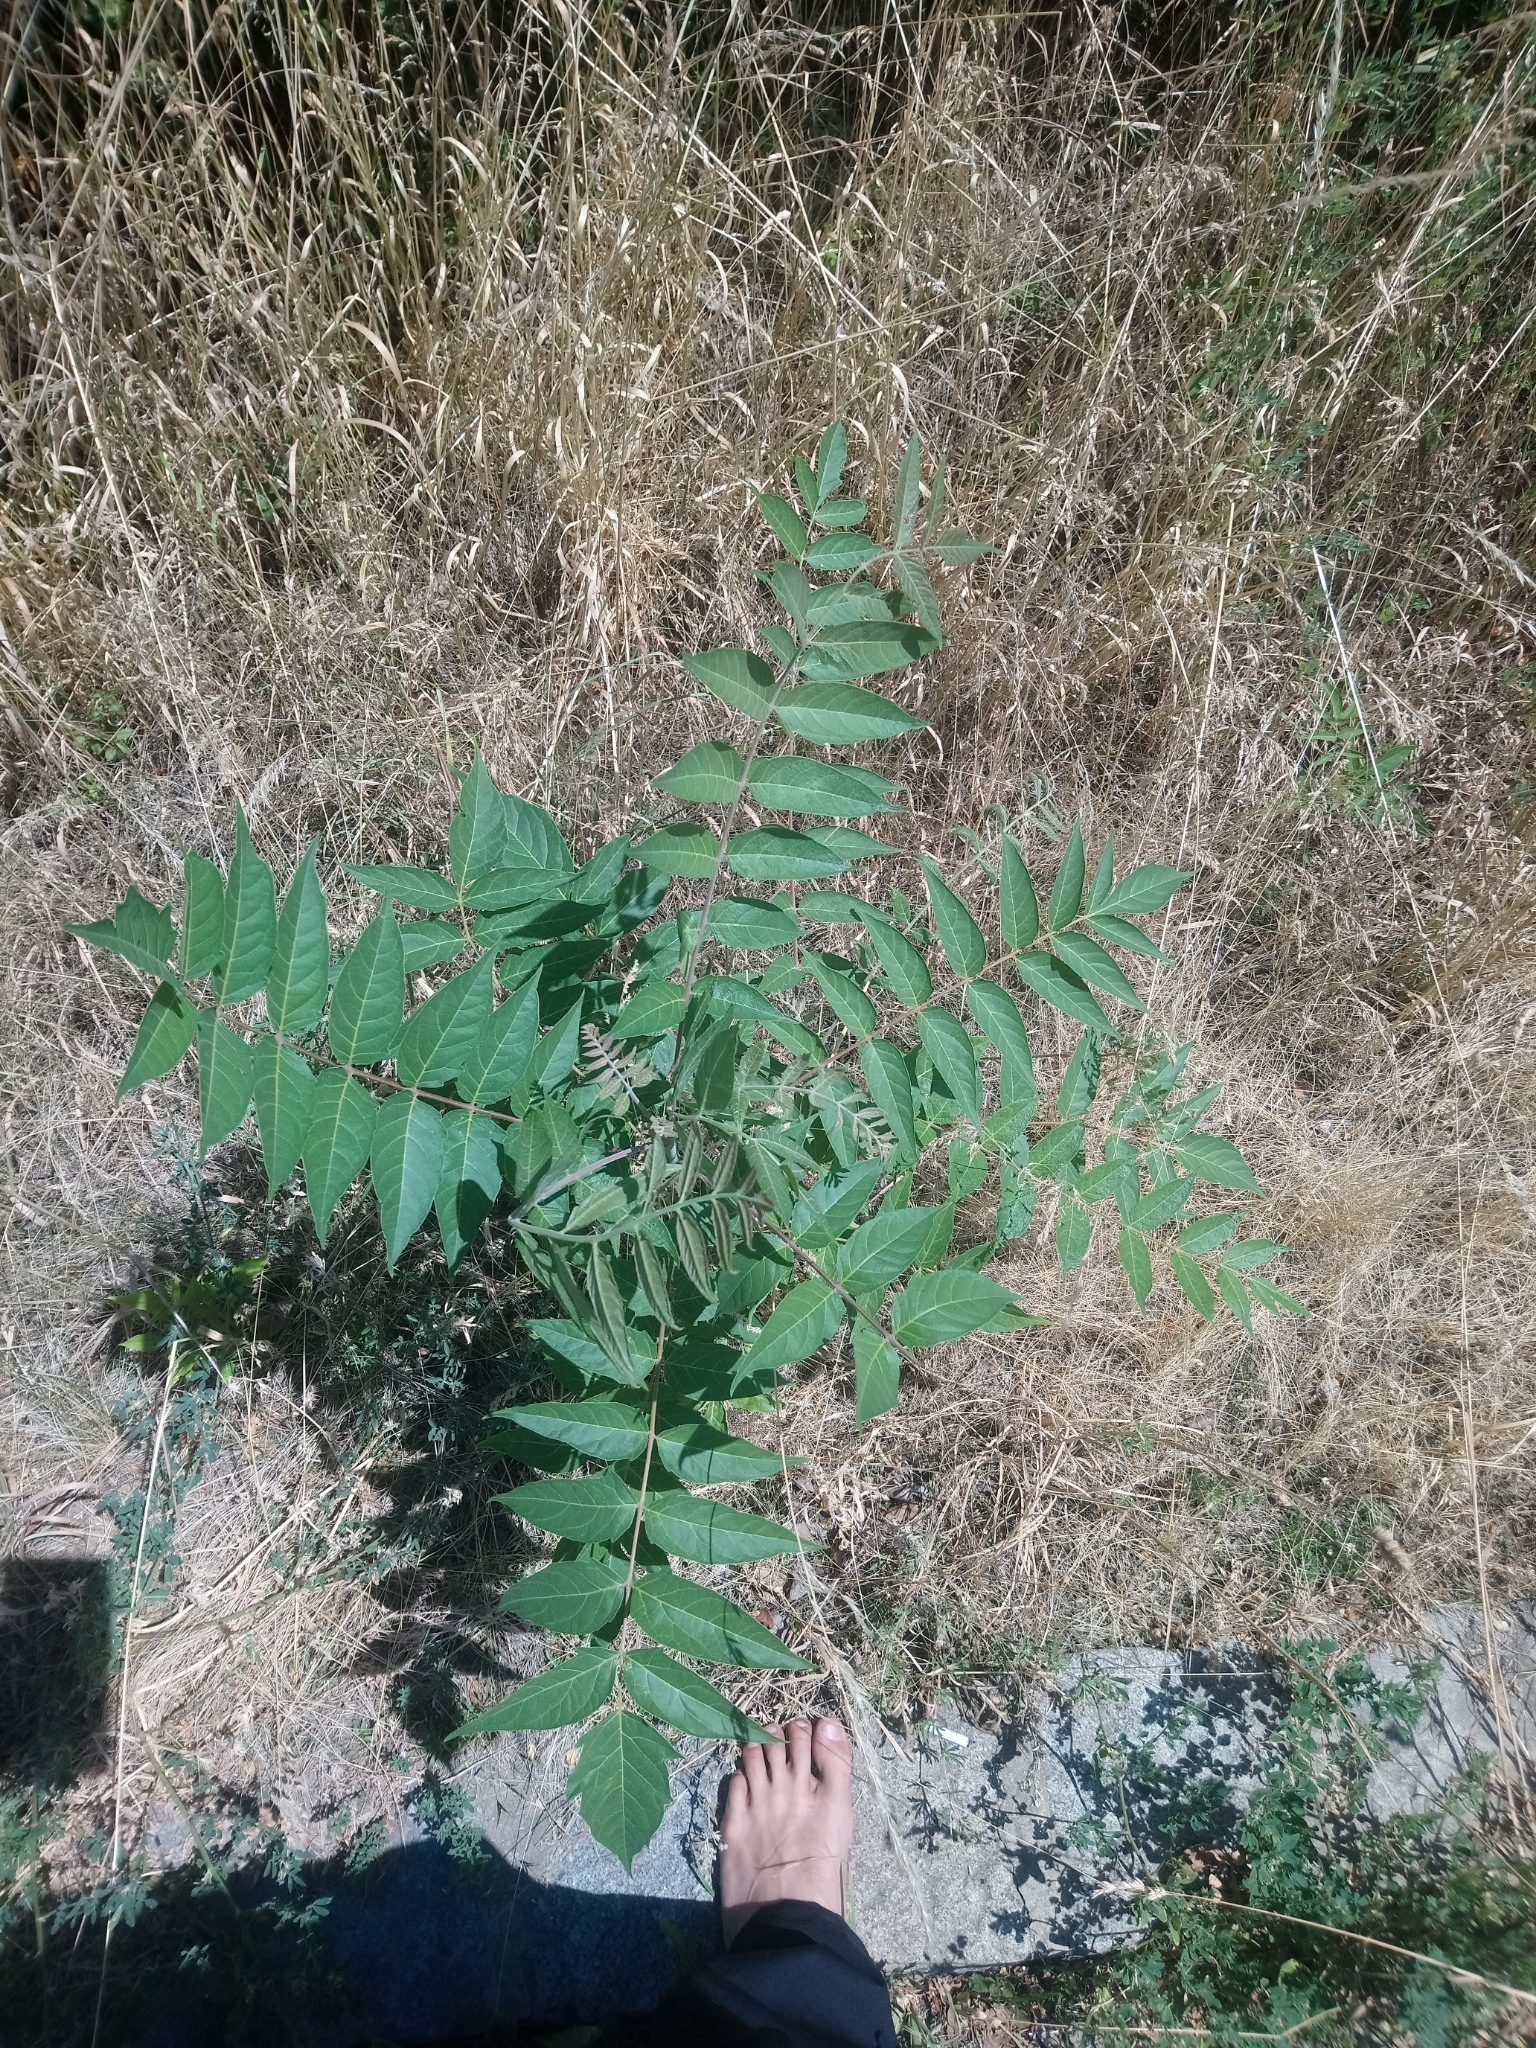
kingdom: Plantae
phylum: Tracheophyta
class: Magnoliopsida
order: Sapindales
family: Simaroubaceae
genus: Ailanthus
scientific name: Ailanthus altissima
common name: Tree-of-heaven
